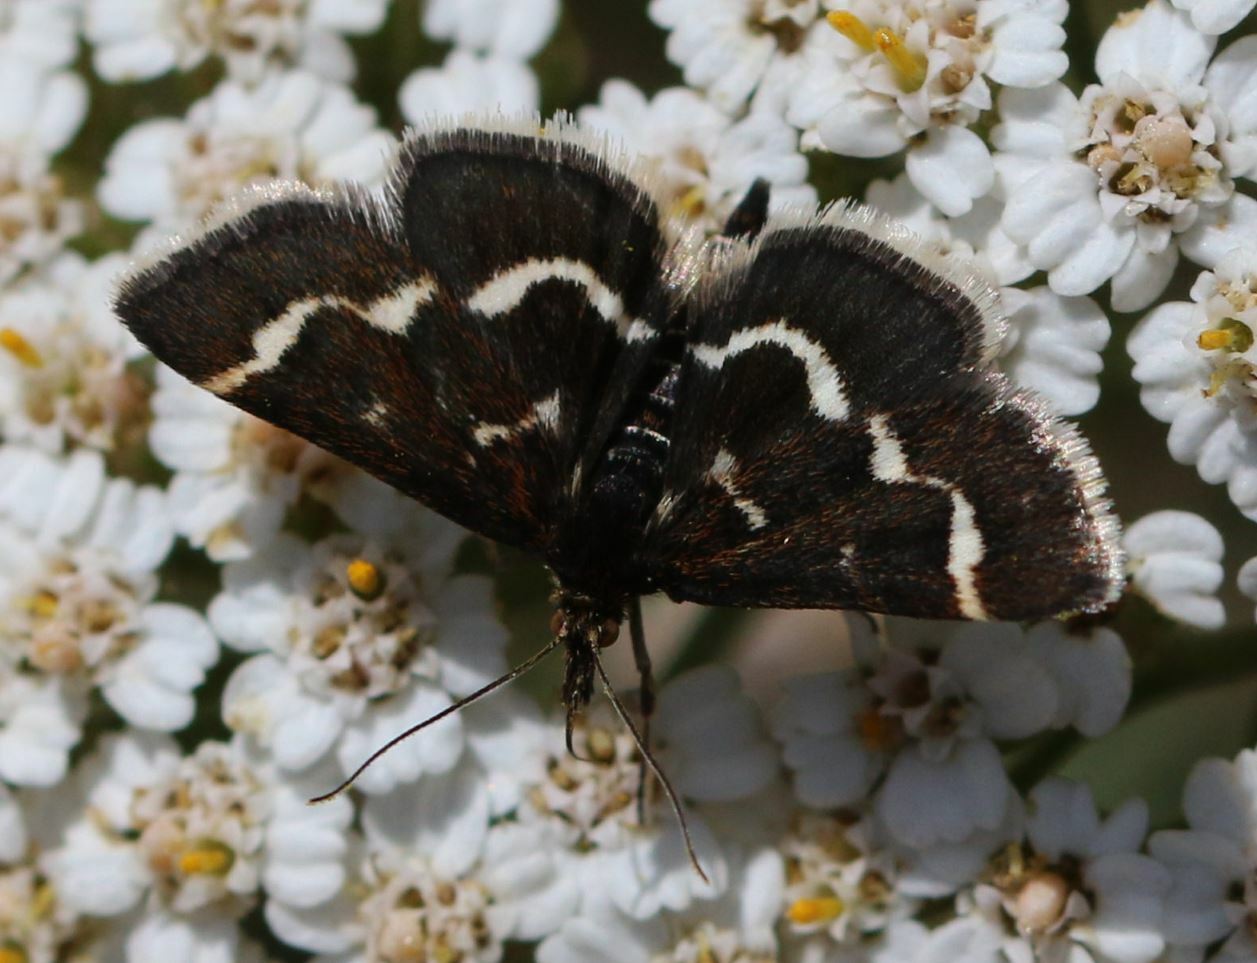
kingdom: Animalia
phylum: Arthropoda
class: Insecta
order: Lepidoptera
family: Crambidae
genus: Pyrausta
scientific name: Pyrausta nigrata
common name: Wavy-barred sable
